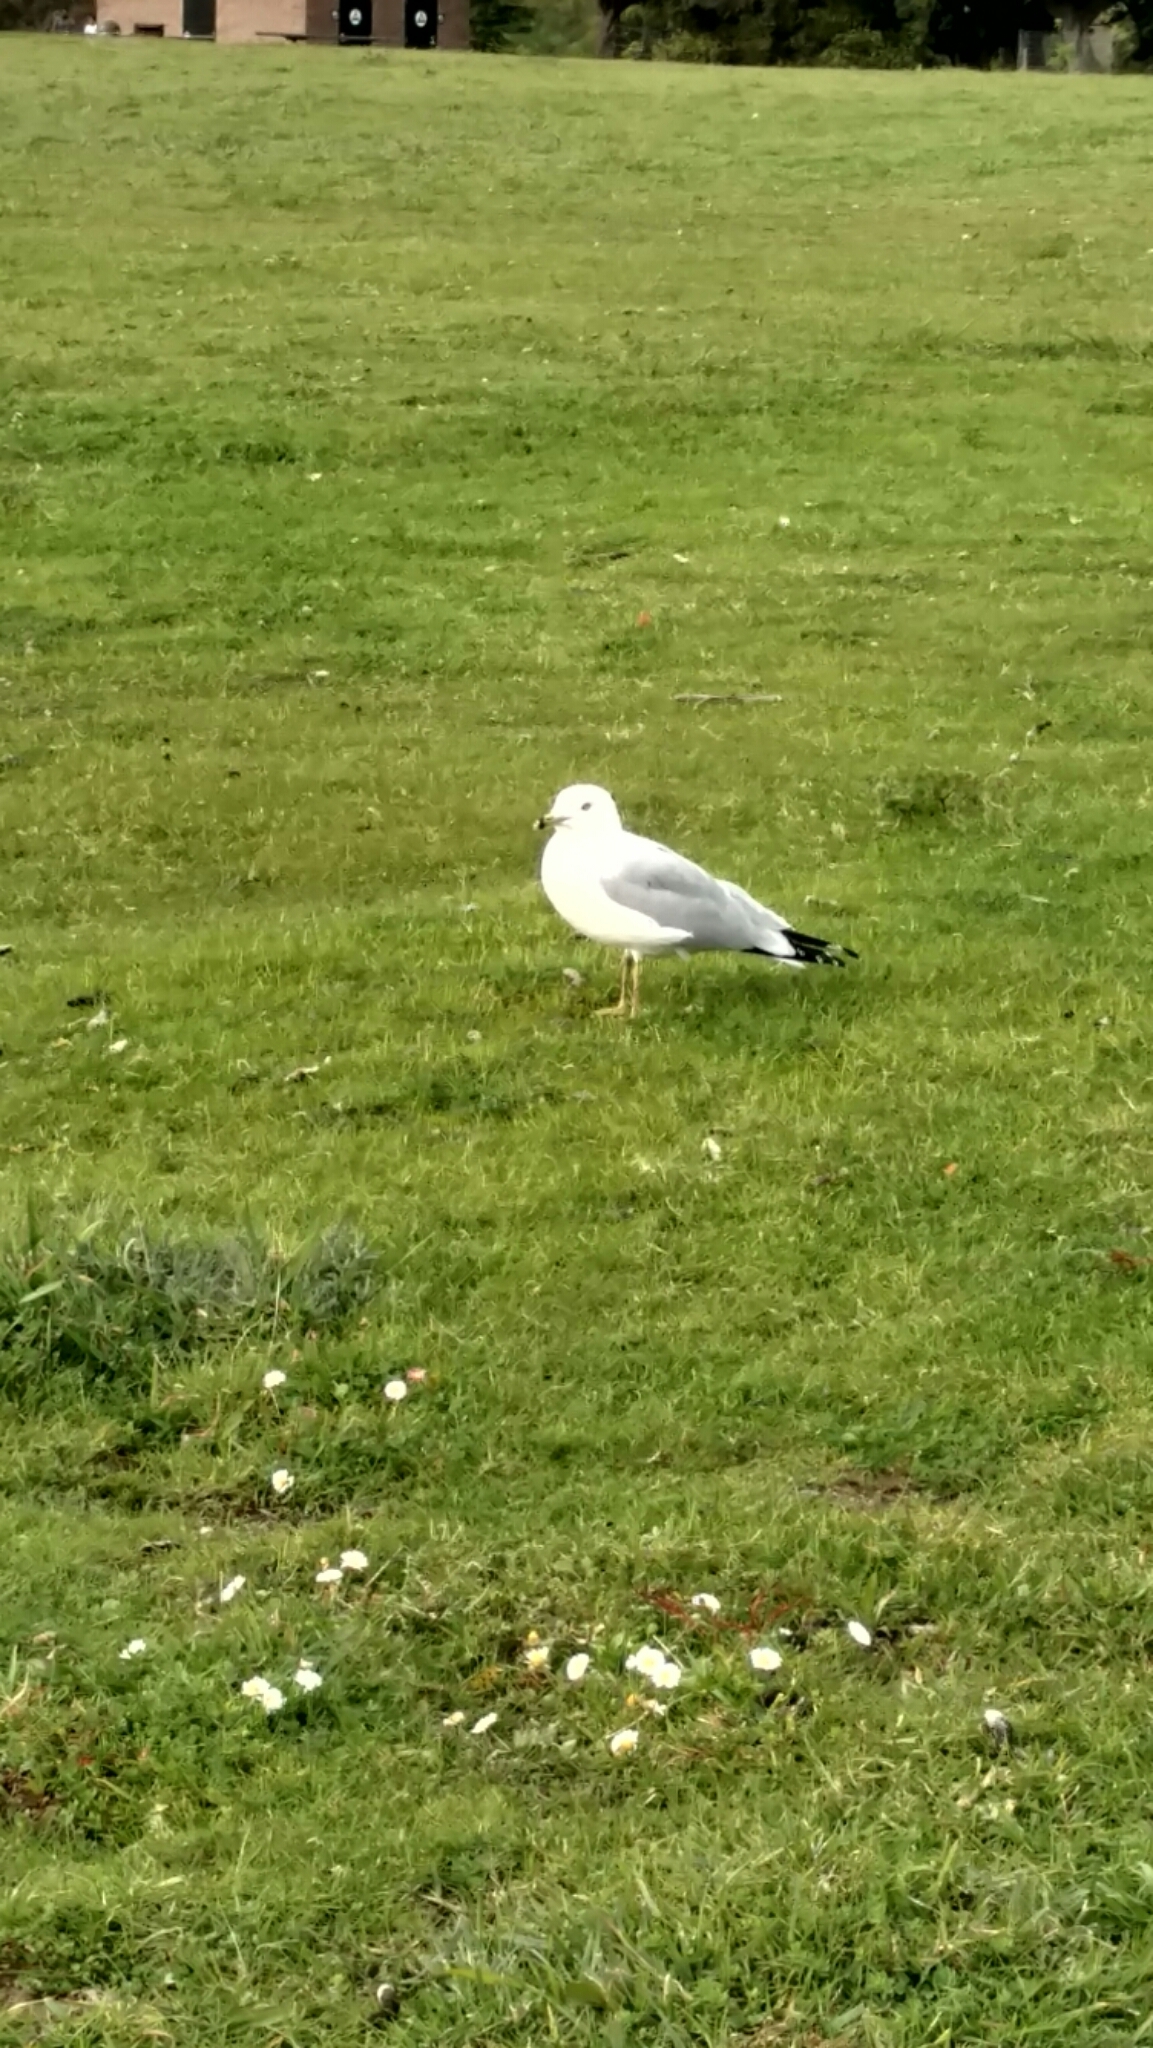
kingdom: Animalia
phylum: Chordata
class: Aves
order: Charadriiformes
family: Laridae
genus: Larus
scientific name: Larus delawarensis
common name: Ring-billed gull
